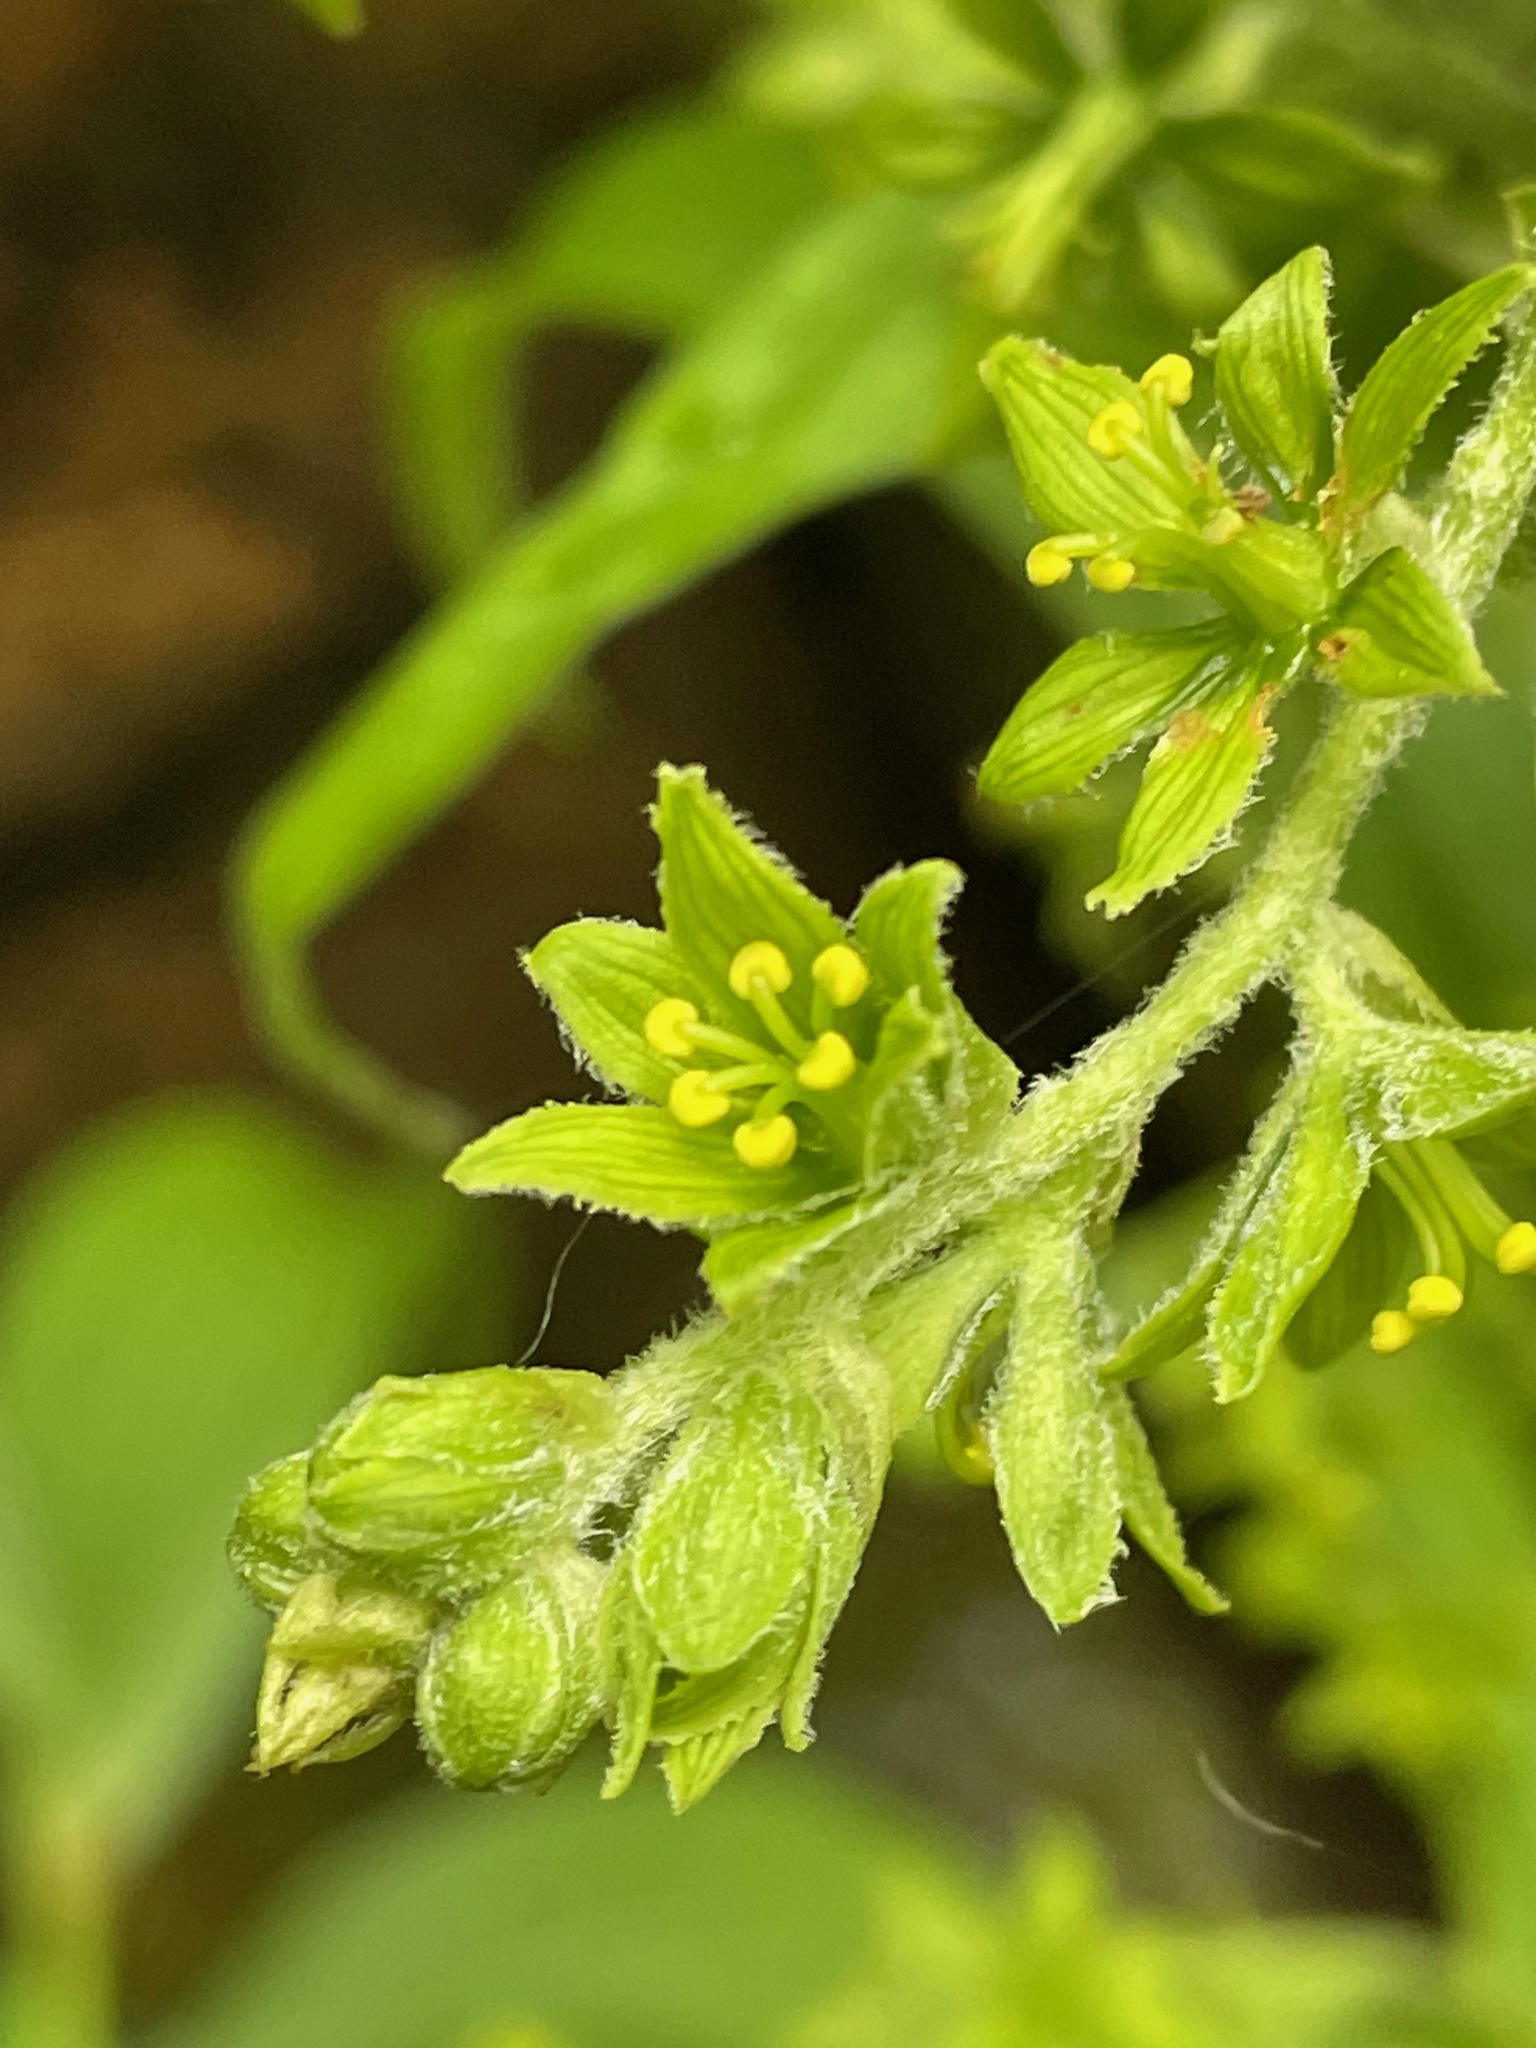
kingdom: Plantae
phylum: Tracheophyta
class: Liliopsida
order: Liliales
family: Melanthiaceae
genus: Veratrum
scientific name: Veratrum viride
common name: American false hellebore
